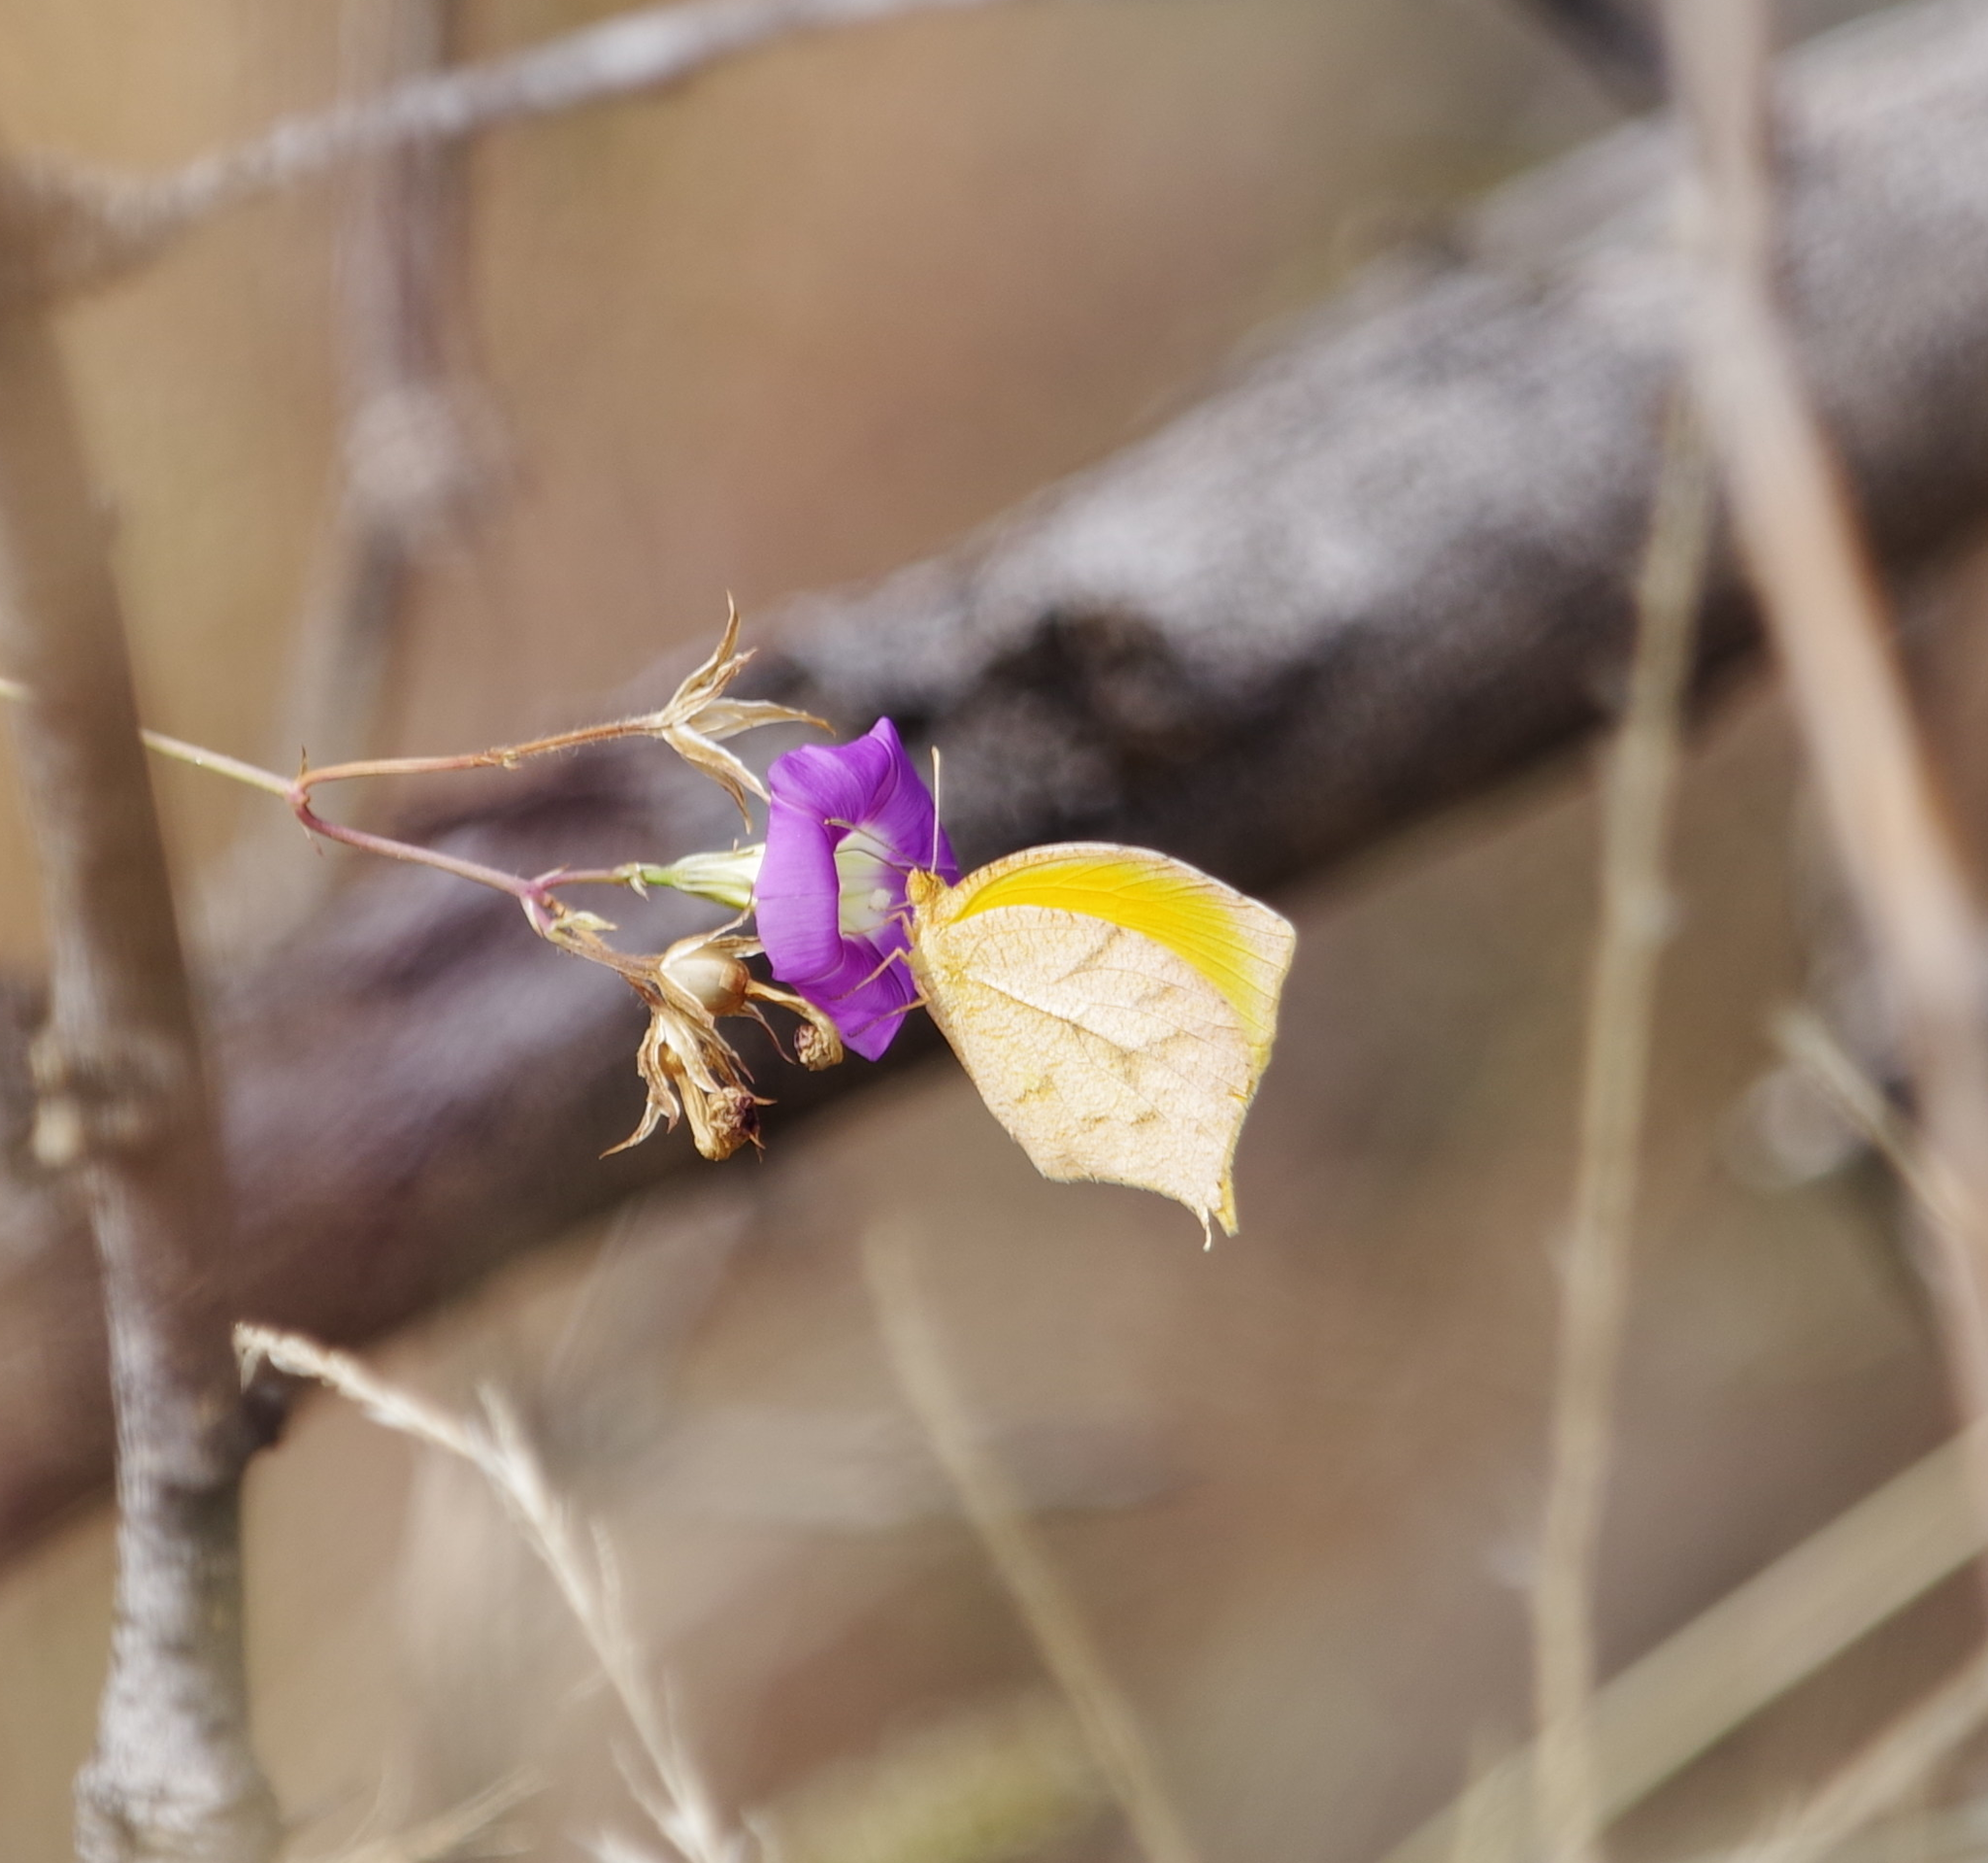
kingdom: Animalia
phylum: Arthropoda
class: Insecta
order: Lepidoptera
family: Pieridae
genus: Abaeis
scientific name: Abaeis nicippe
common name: Sleepy orange
